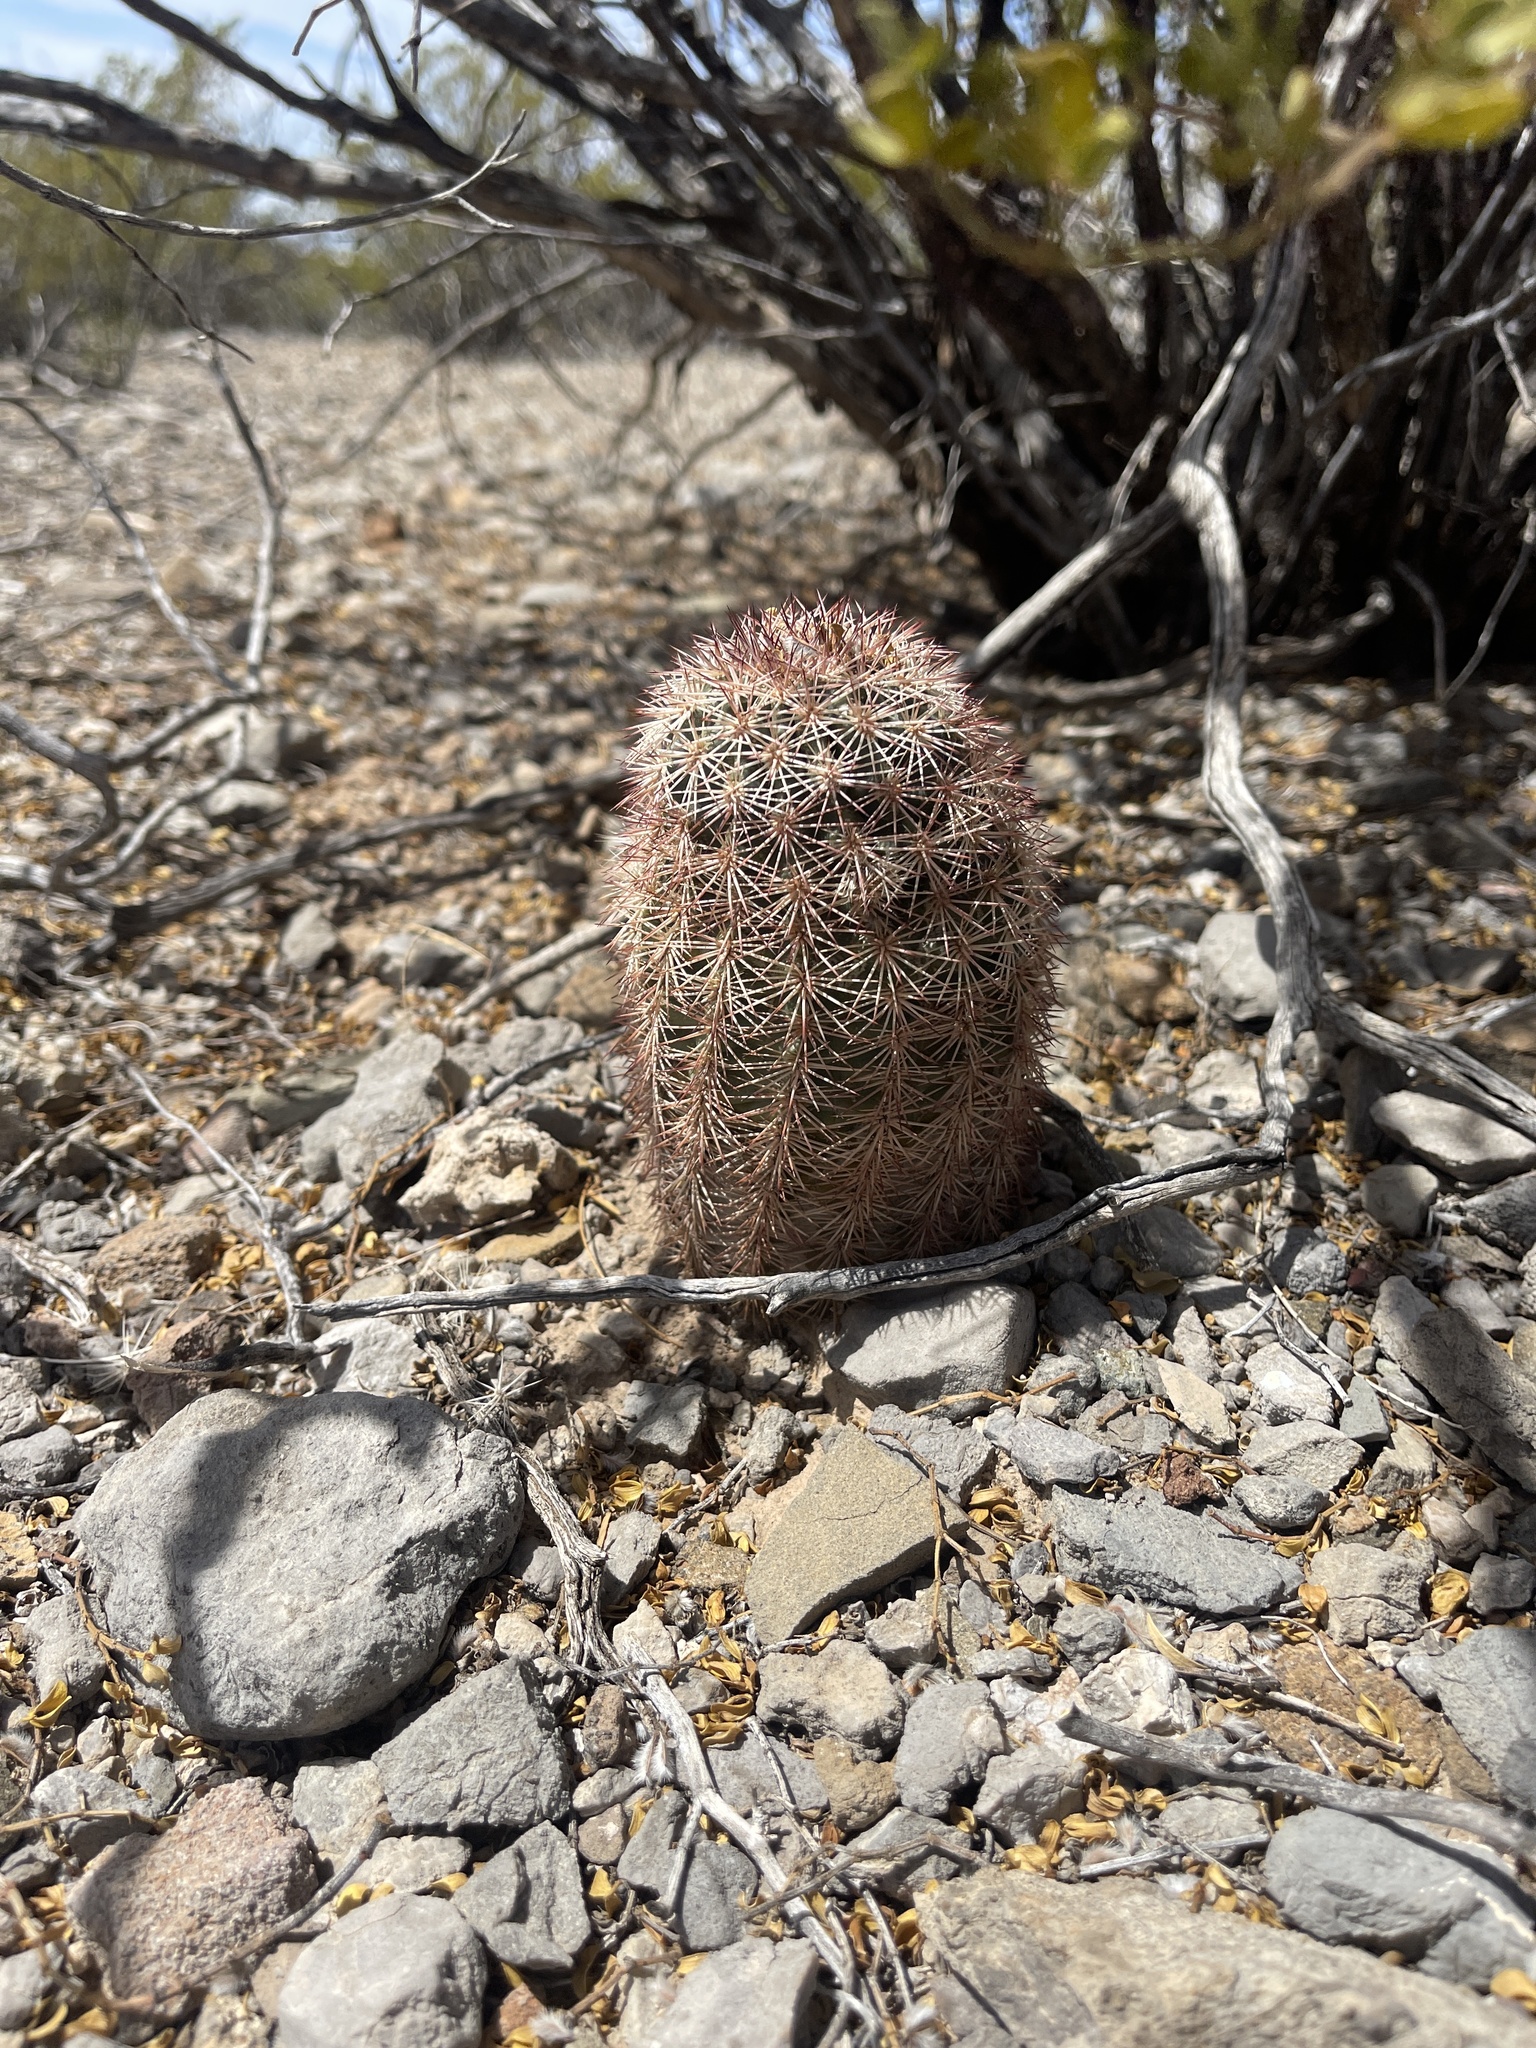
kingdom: Plantae
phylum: Tracheophyta
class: Magnoliopsida
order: Caryophyllales
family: Cactaceae
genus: Echinocereus
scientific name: Echinocereus dasyacanthus
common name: Spiny hedgehog cactus
